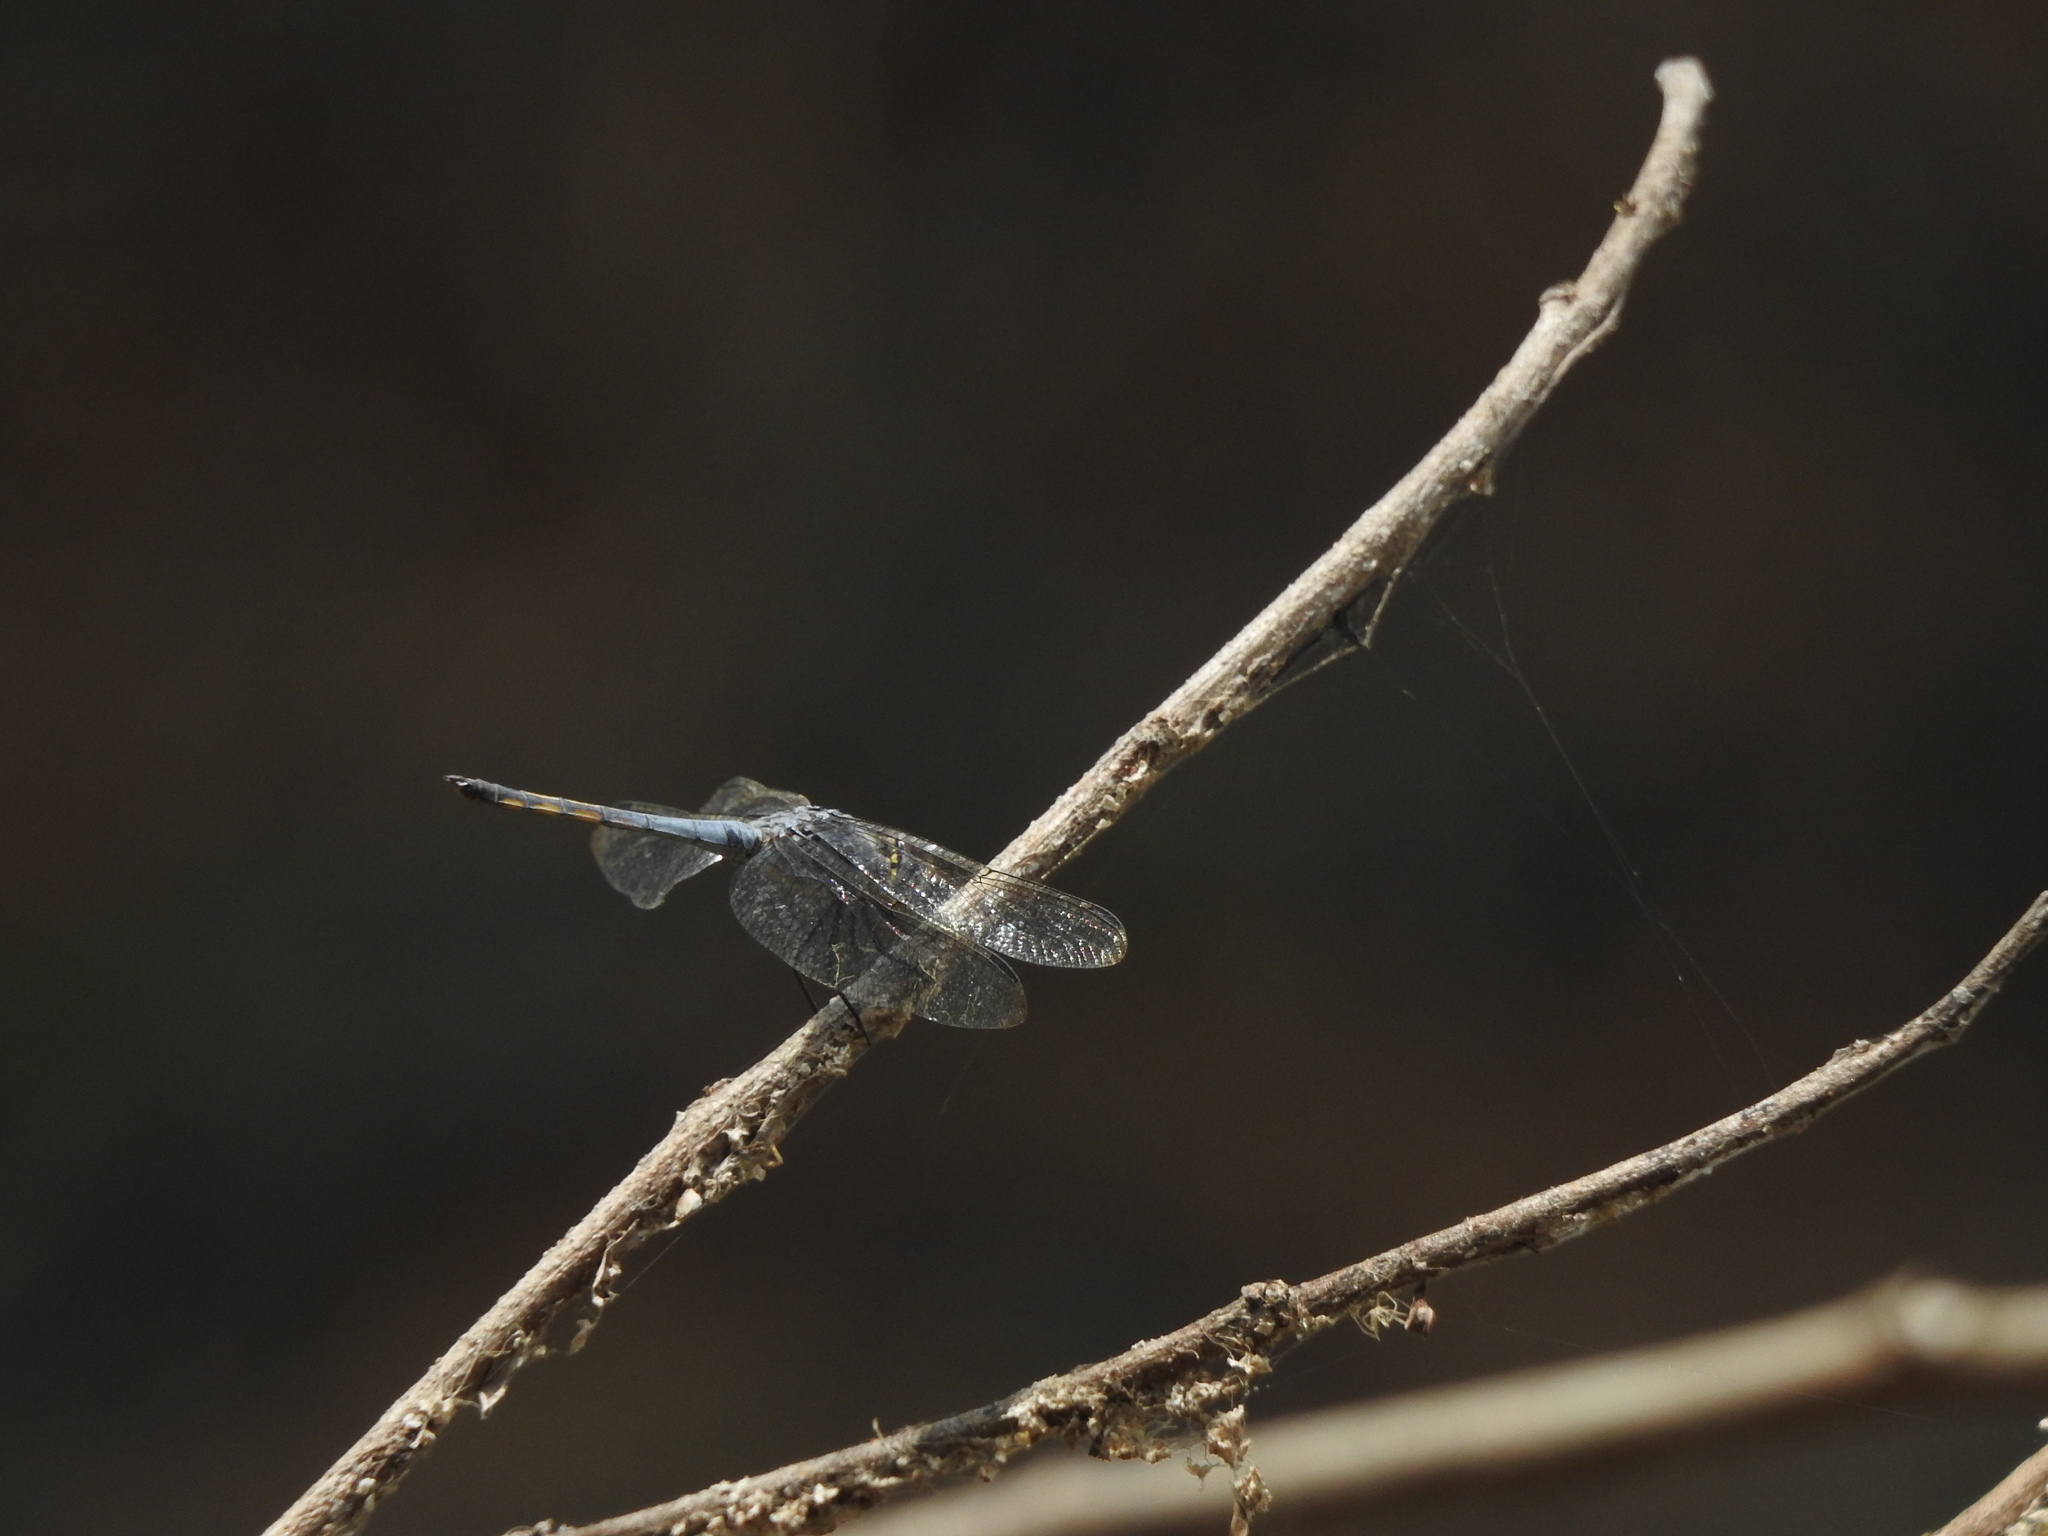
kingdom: Animalia
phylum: Arthropoda
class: Insecta
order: Odonata
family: Libellulidae
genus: Potamarcha
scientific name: Potamarcha congener
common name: Blue chaser
